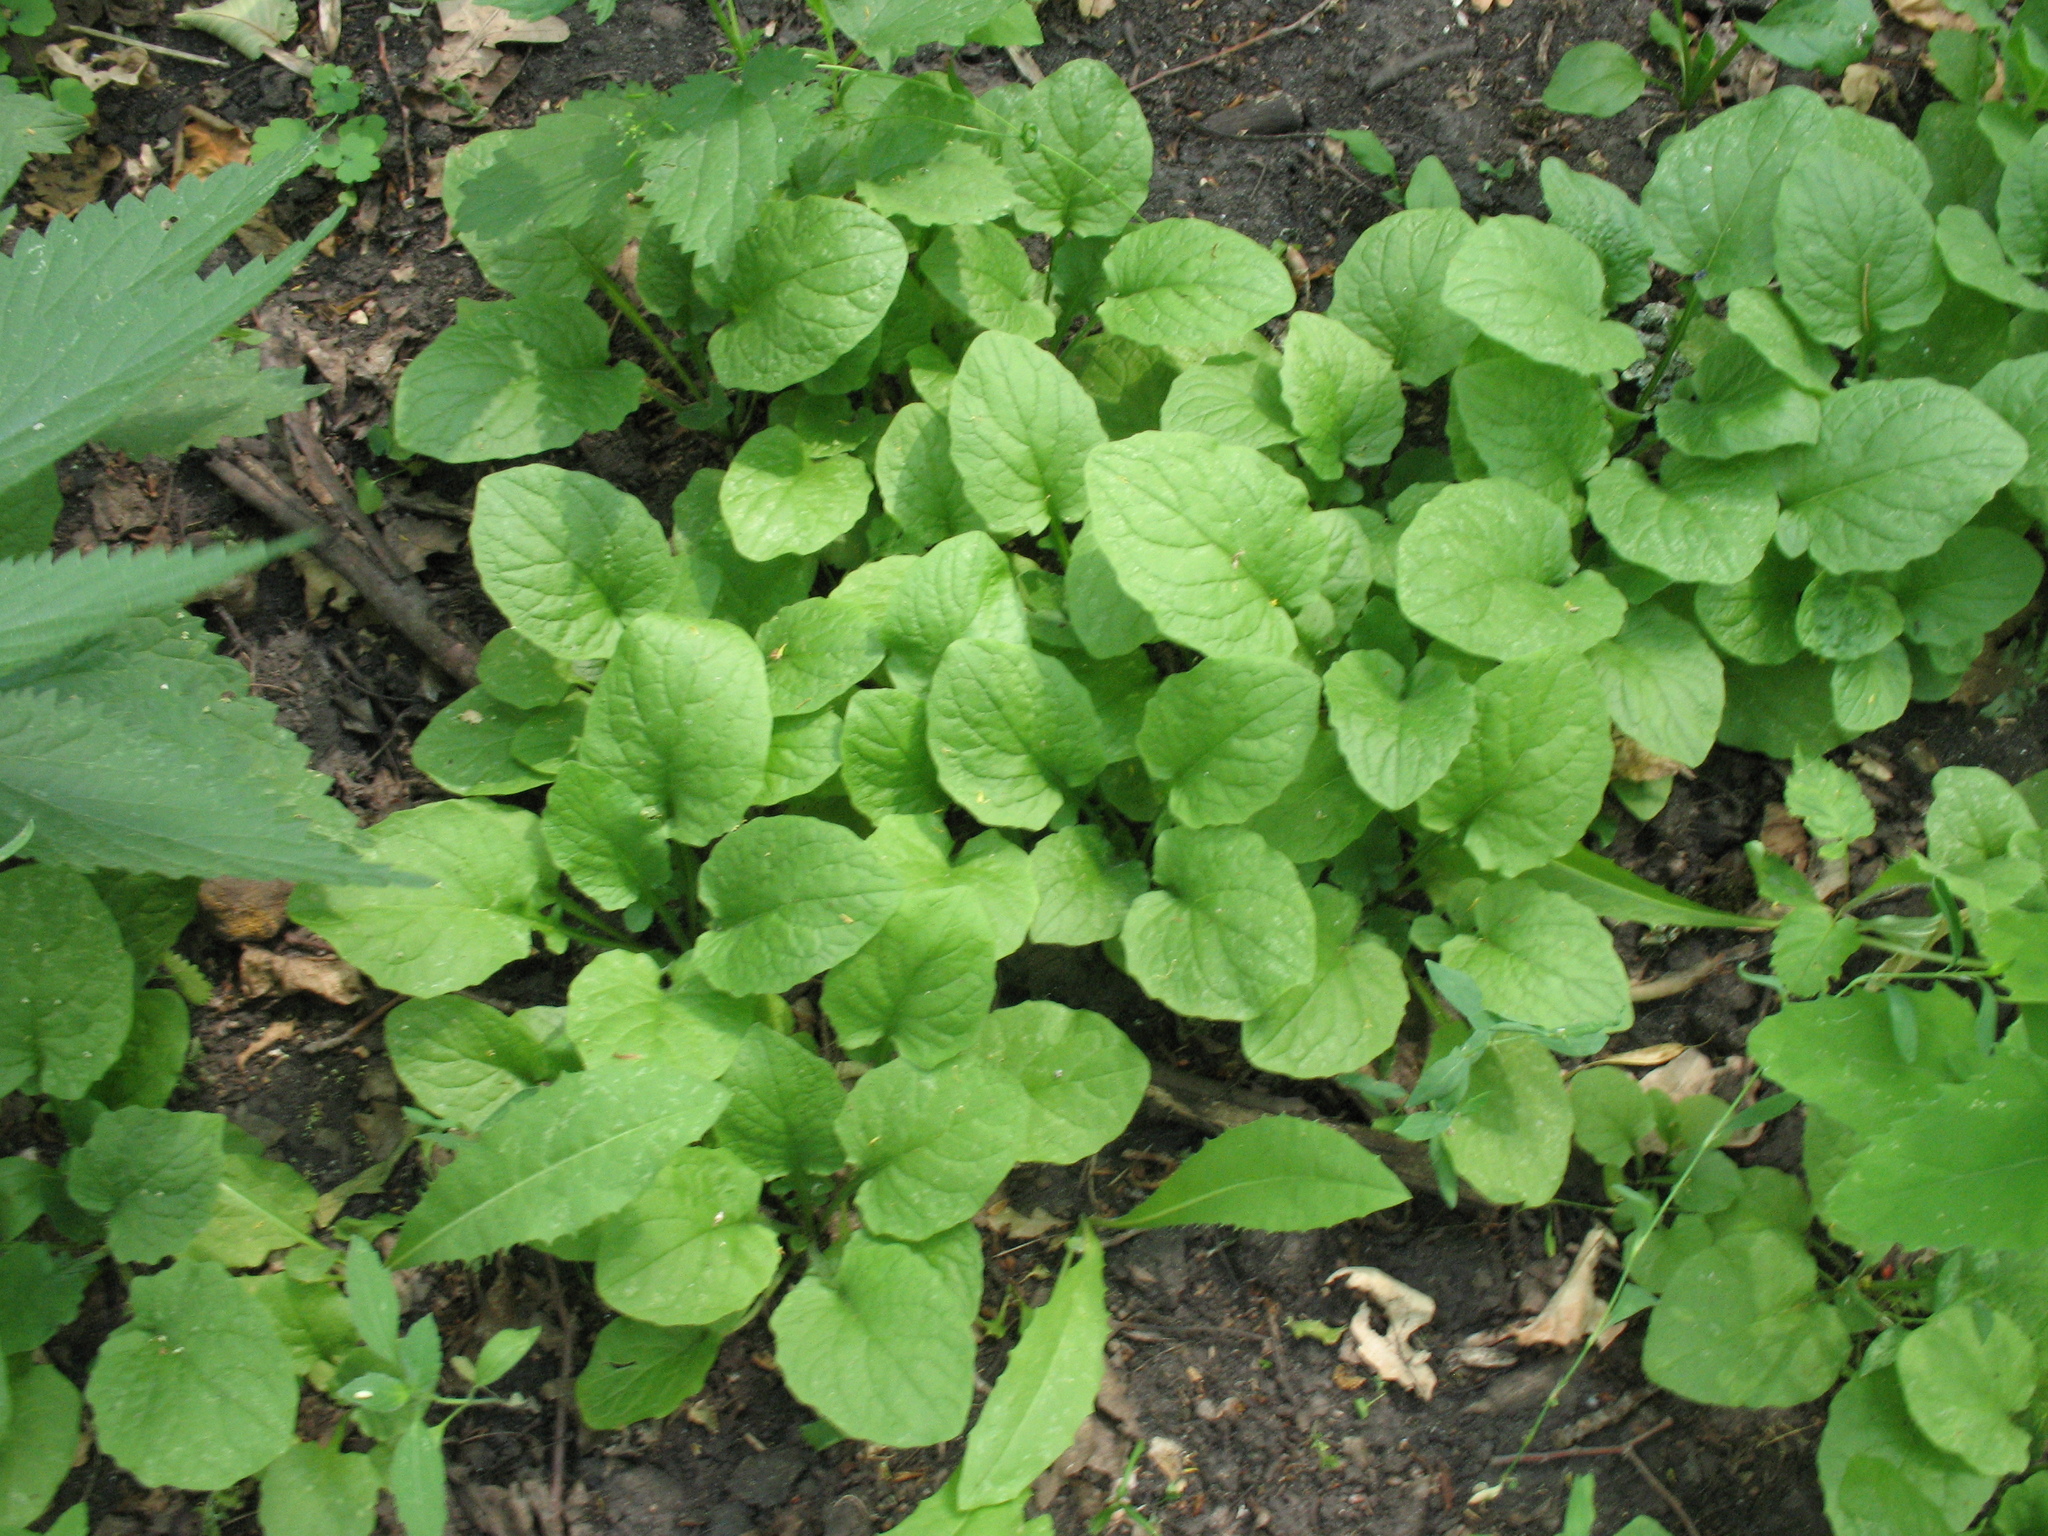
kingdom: Plantae
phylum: Tracheophyta
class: Magnoliopsida
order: Asterales
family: Asteraceae
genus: Lapsana
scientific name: Lapsana communis
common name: Nipplewort
